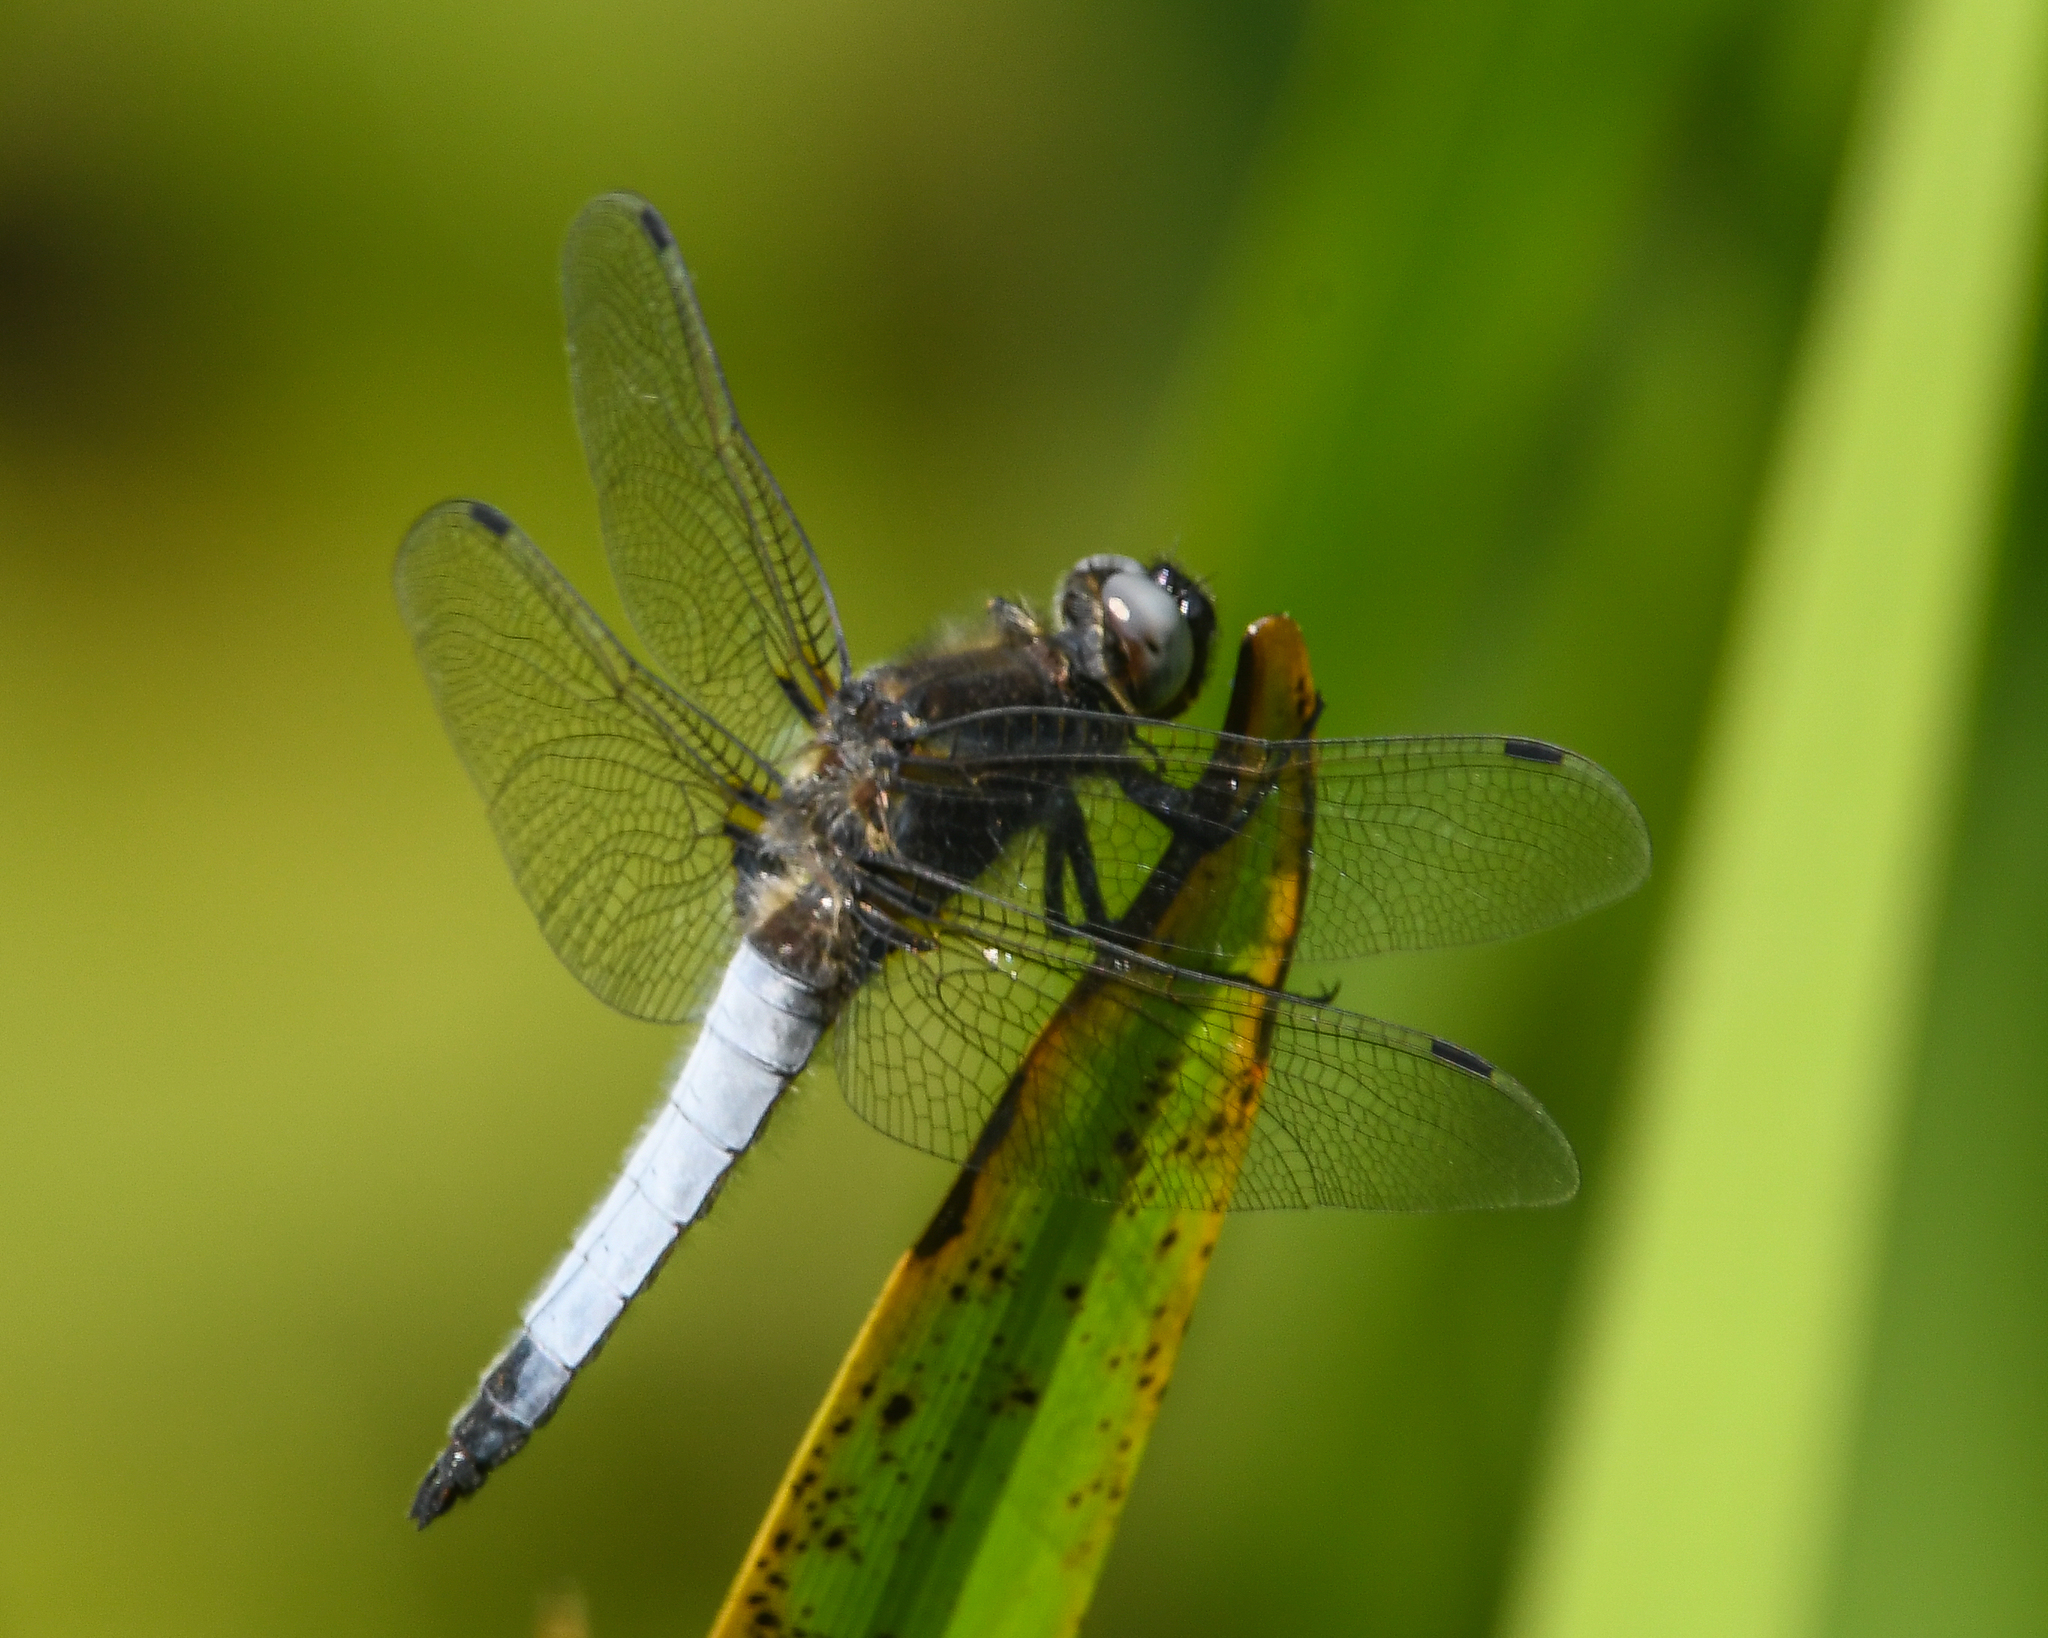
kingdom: Animalia
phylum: Arthropoda
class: Insecta
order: Odonata
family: Libellulidae
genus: Libellula
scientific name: Libellula fulva
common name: Blue chaser
